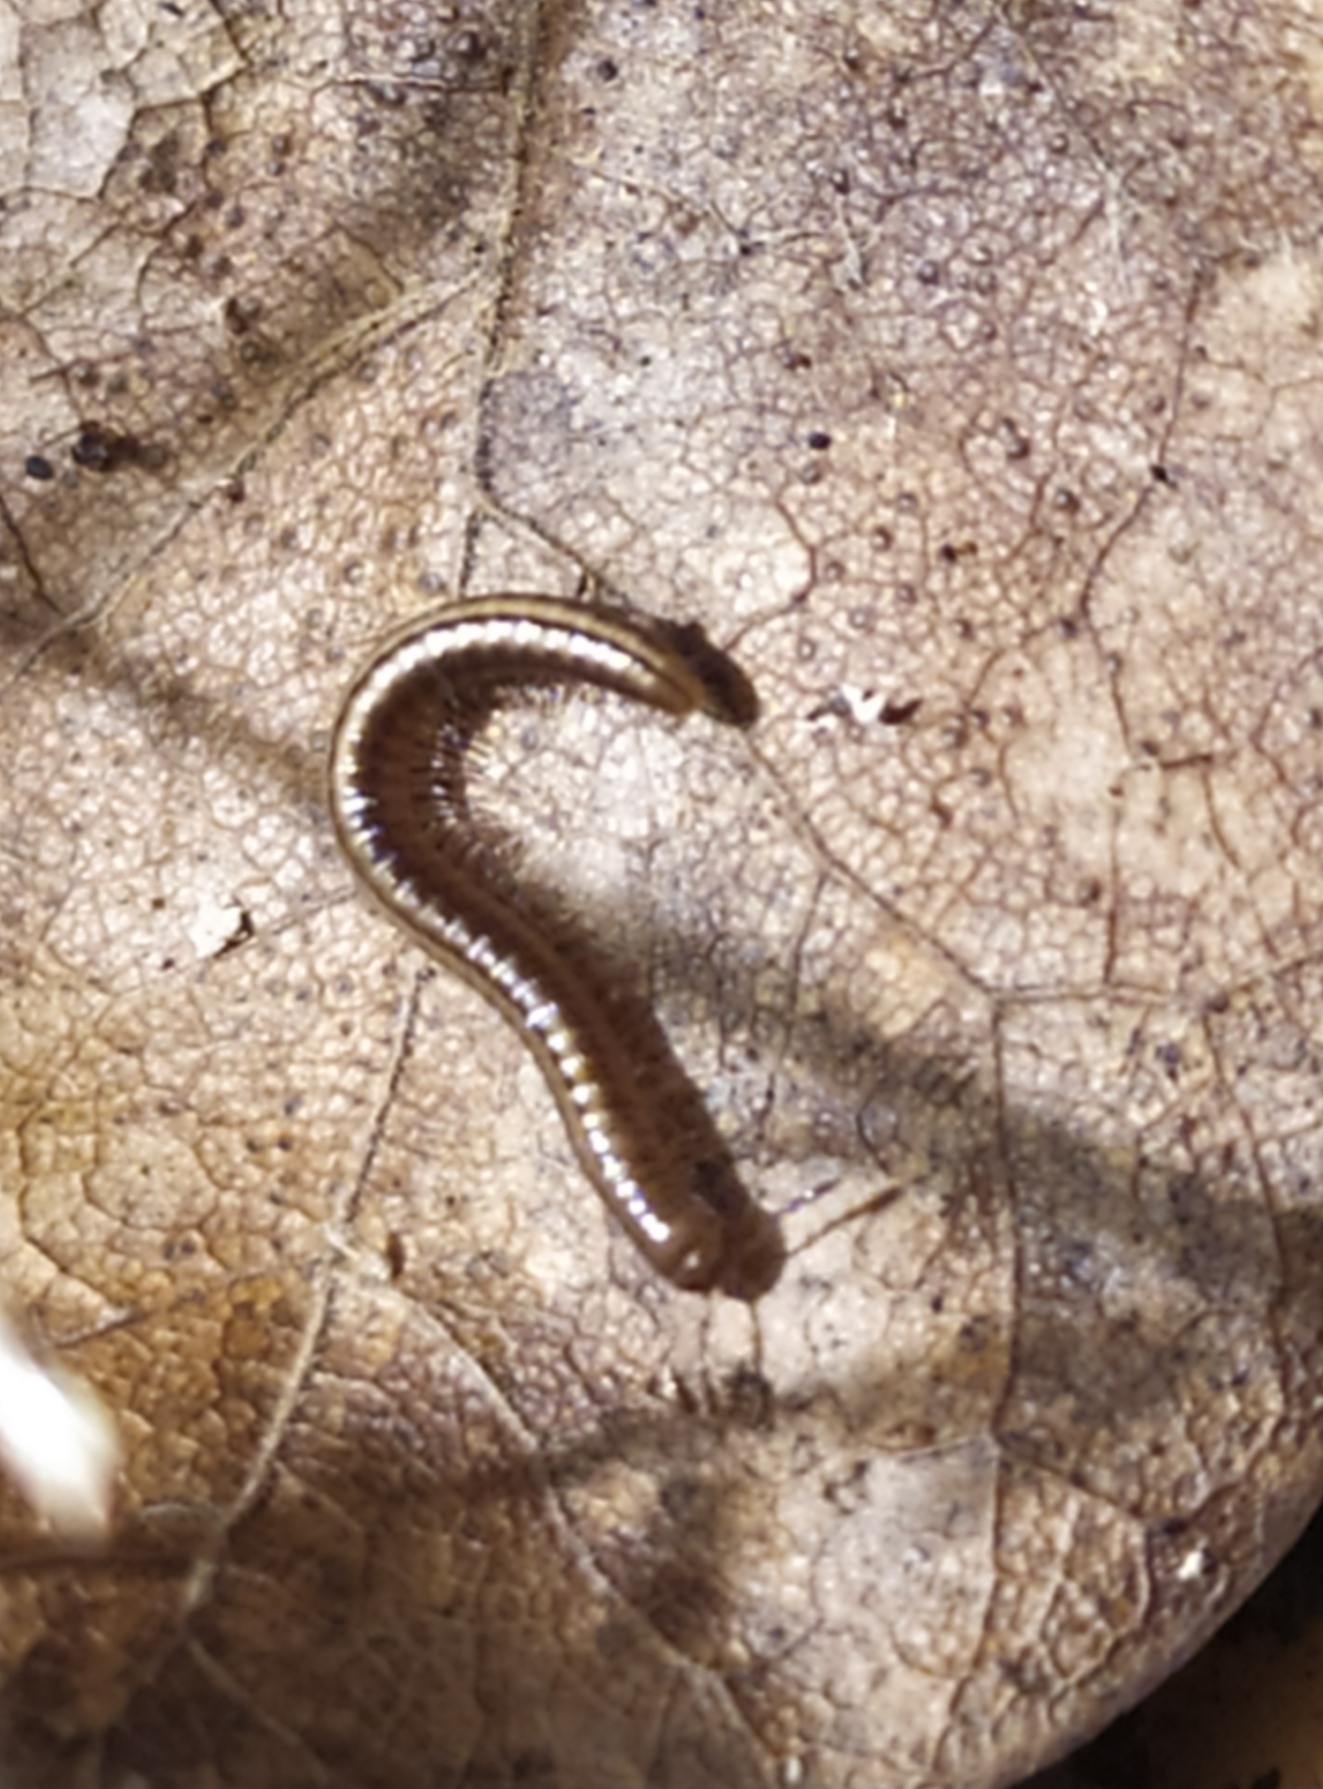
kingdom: Animalia
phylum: Arthropoda
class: Diplopoda
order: Julida
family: Julidae
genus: Brachyiulus
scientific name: Brachyiulus pusillus
